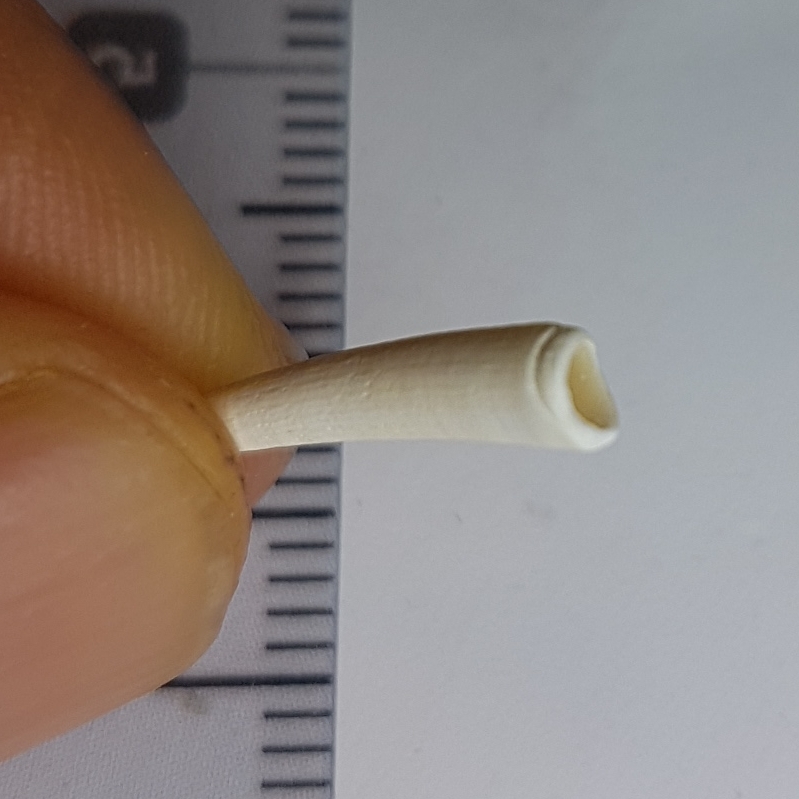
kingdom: Animalia
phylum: Mollusca
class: Scaphopoda
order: Dentaliida
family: Dentaliidae
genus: Antalis
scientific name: Antalis vulgaris
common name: Common elephant's tusk
